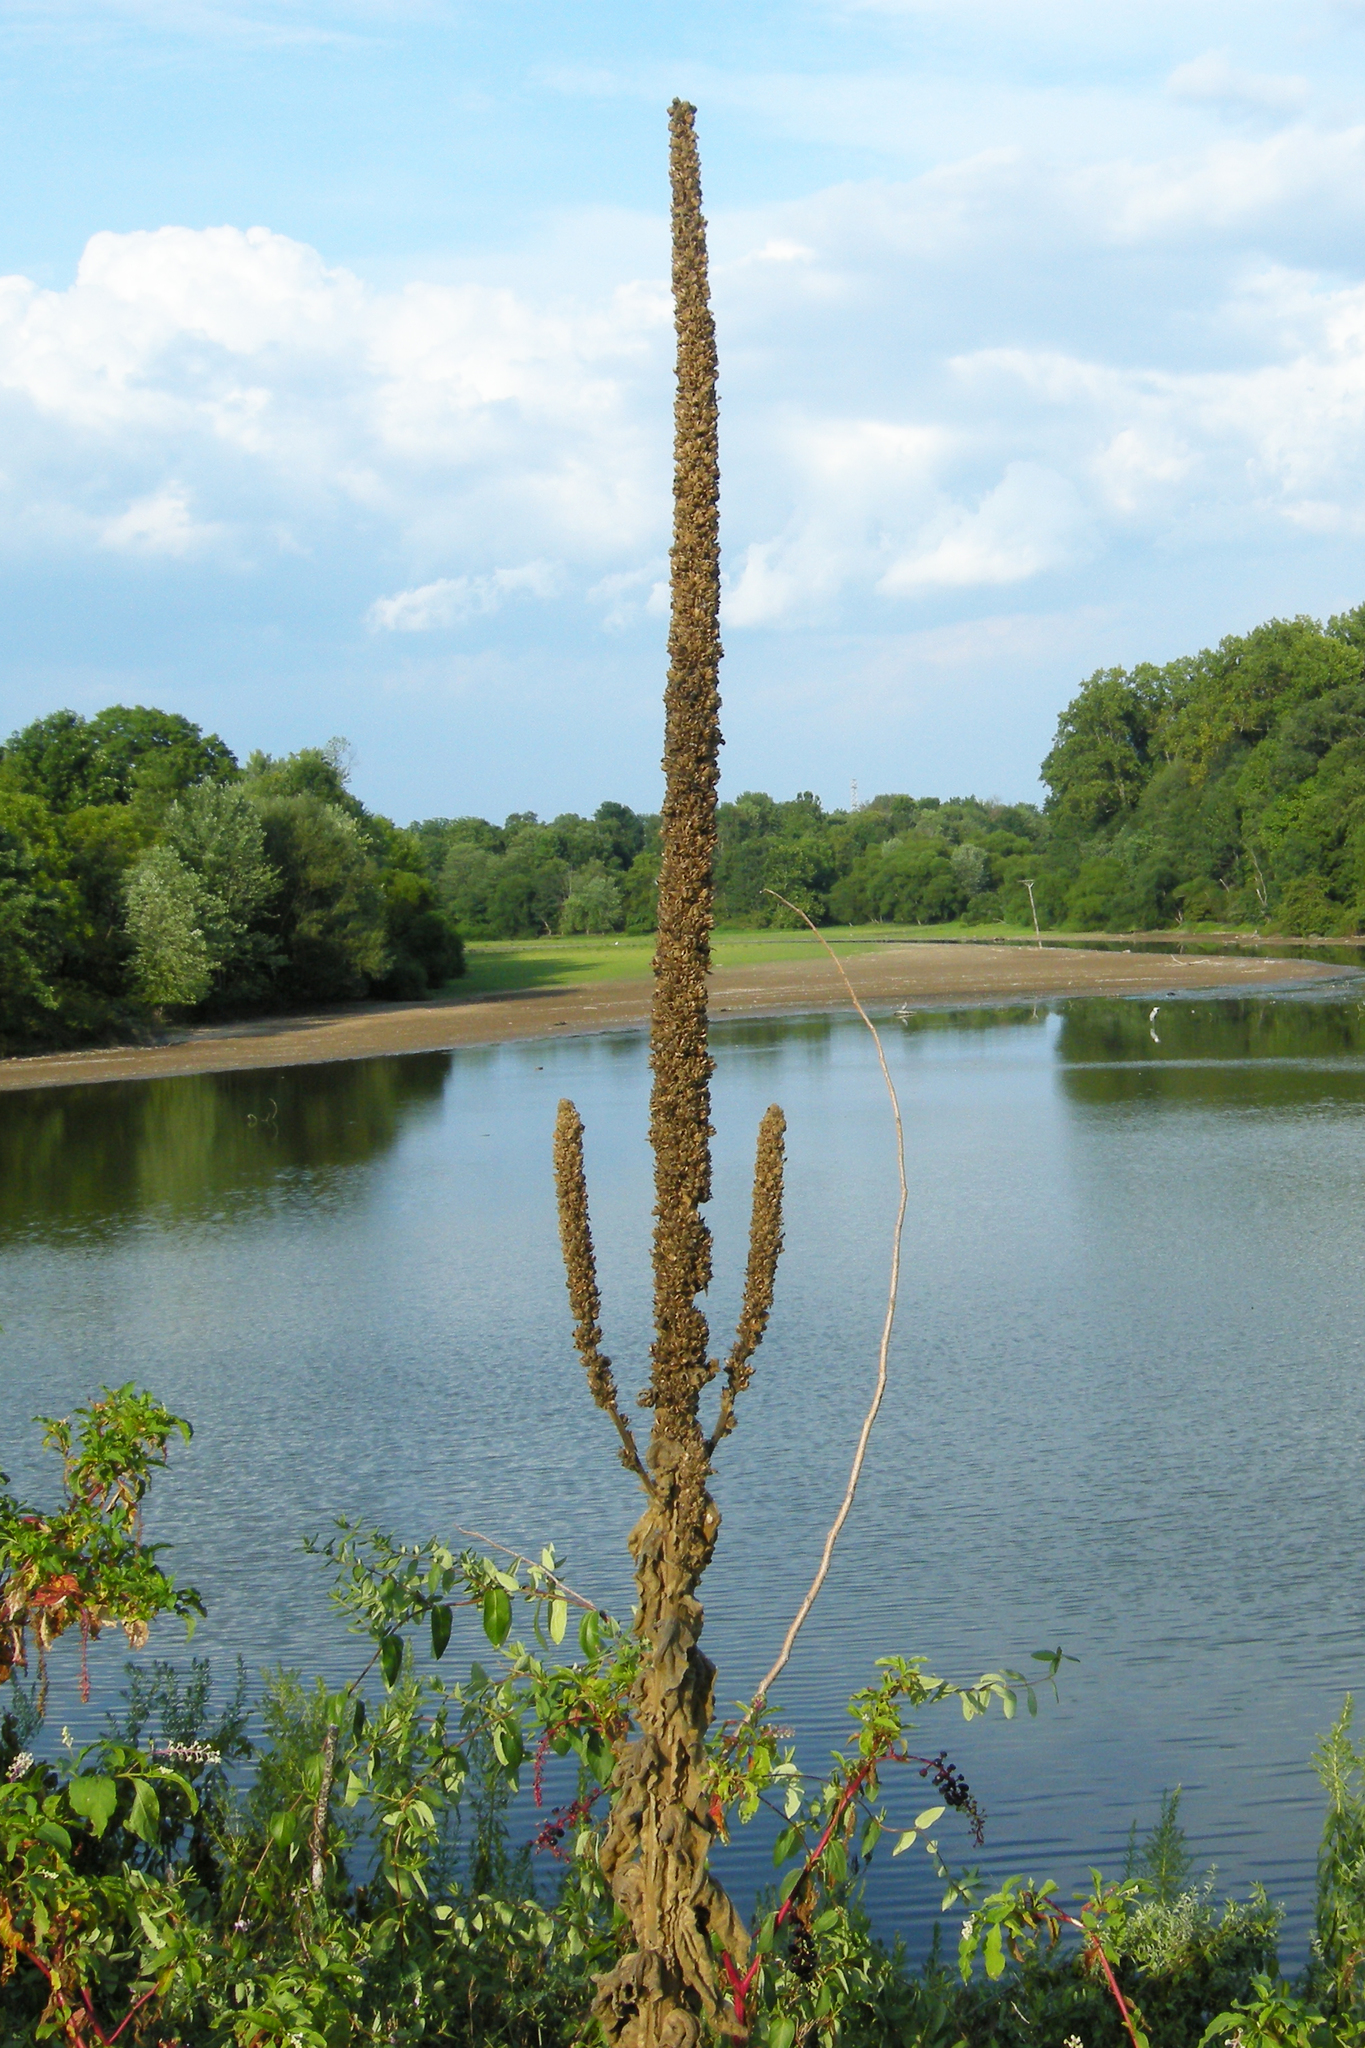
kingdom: Plantae
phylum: Tracheophyta
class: Magnoliopsida
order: Lamiales
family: Scrophulariaceae
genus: Verbascum
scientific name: Verbascum thapsus
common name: Common mullein
